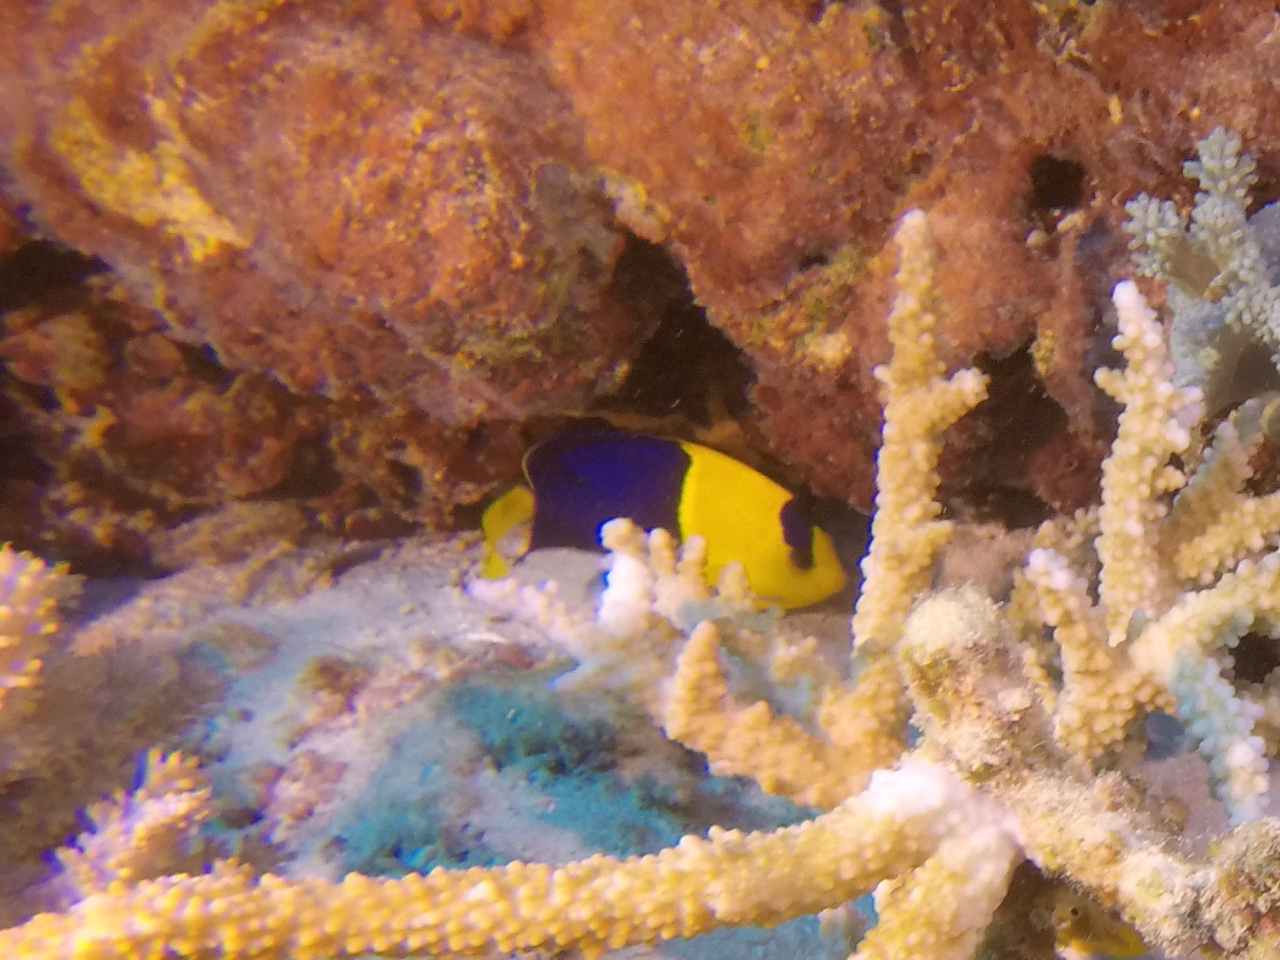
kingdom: Animalia
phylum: Chordata
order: Perciformes
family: Pomacanthidae
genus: Centropyge
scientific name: Centropyge bicolor
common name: Bicolor angelfish
